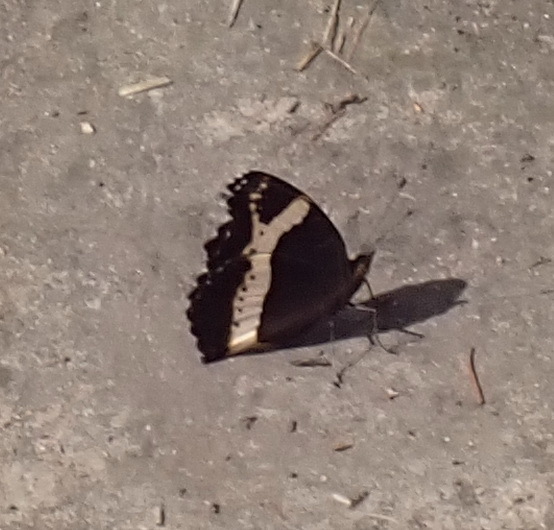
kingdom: Animalia
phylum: Arthropoda
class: Insecta
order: Lepidoptera
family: Nymphalidae
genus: Junonia
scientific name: Junonia archesia
